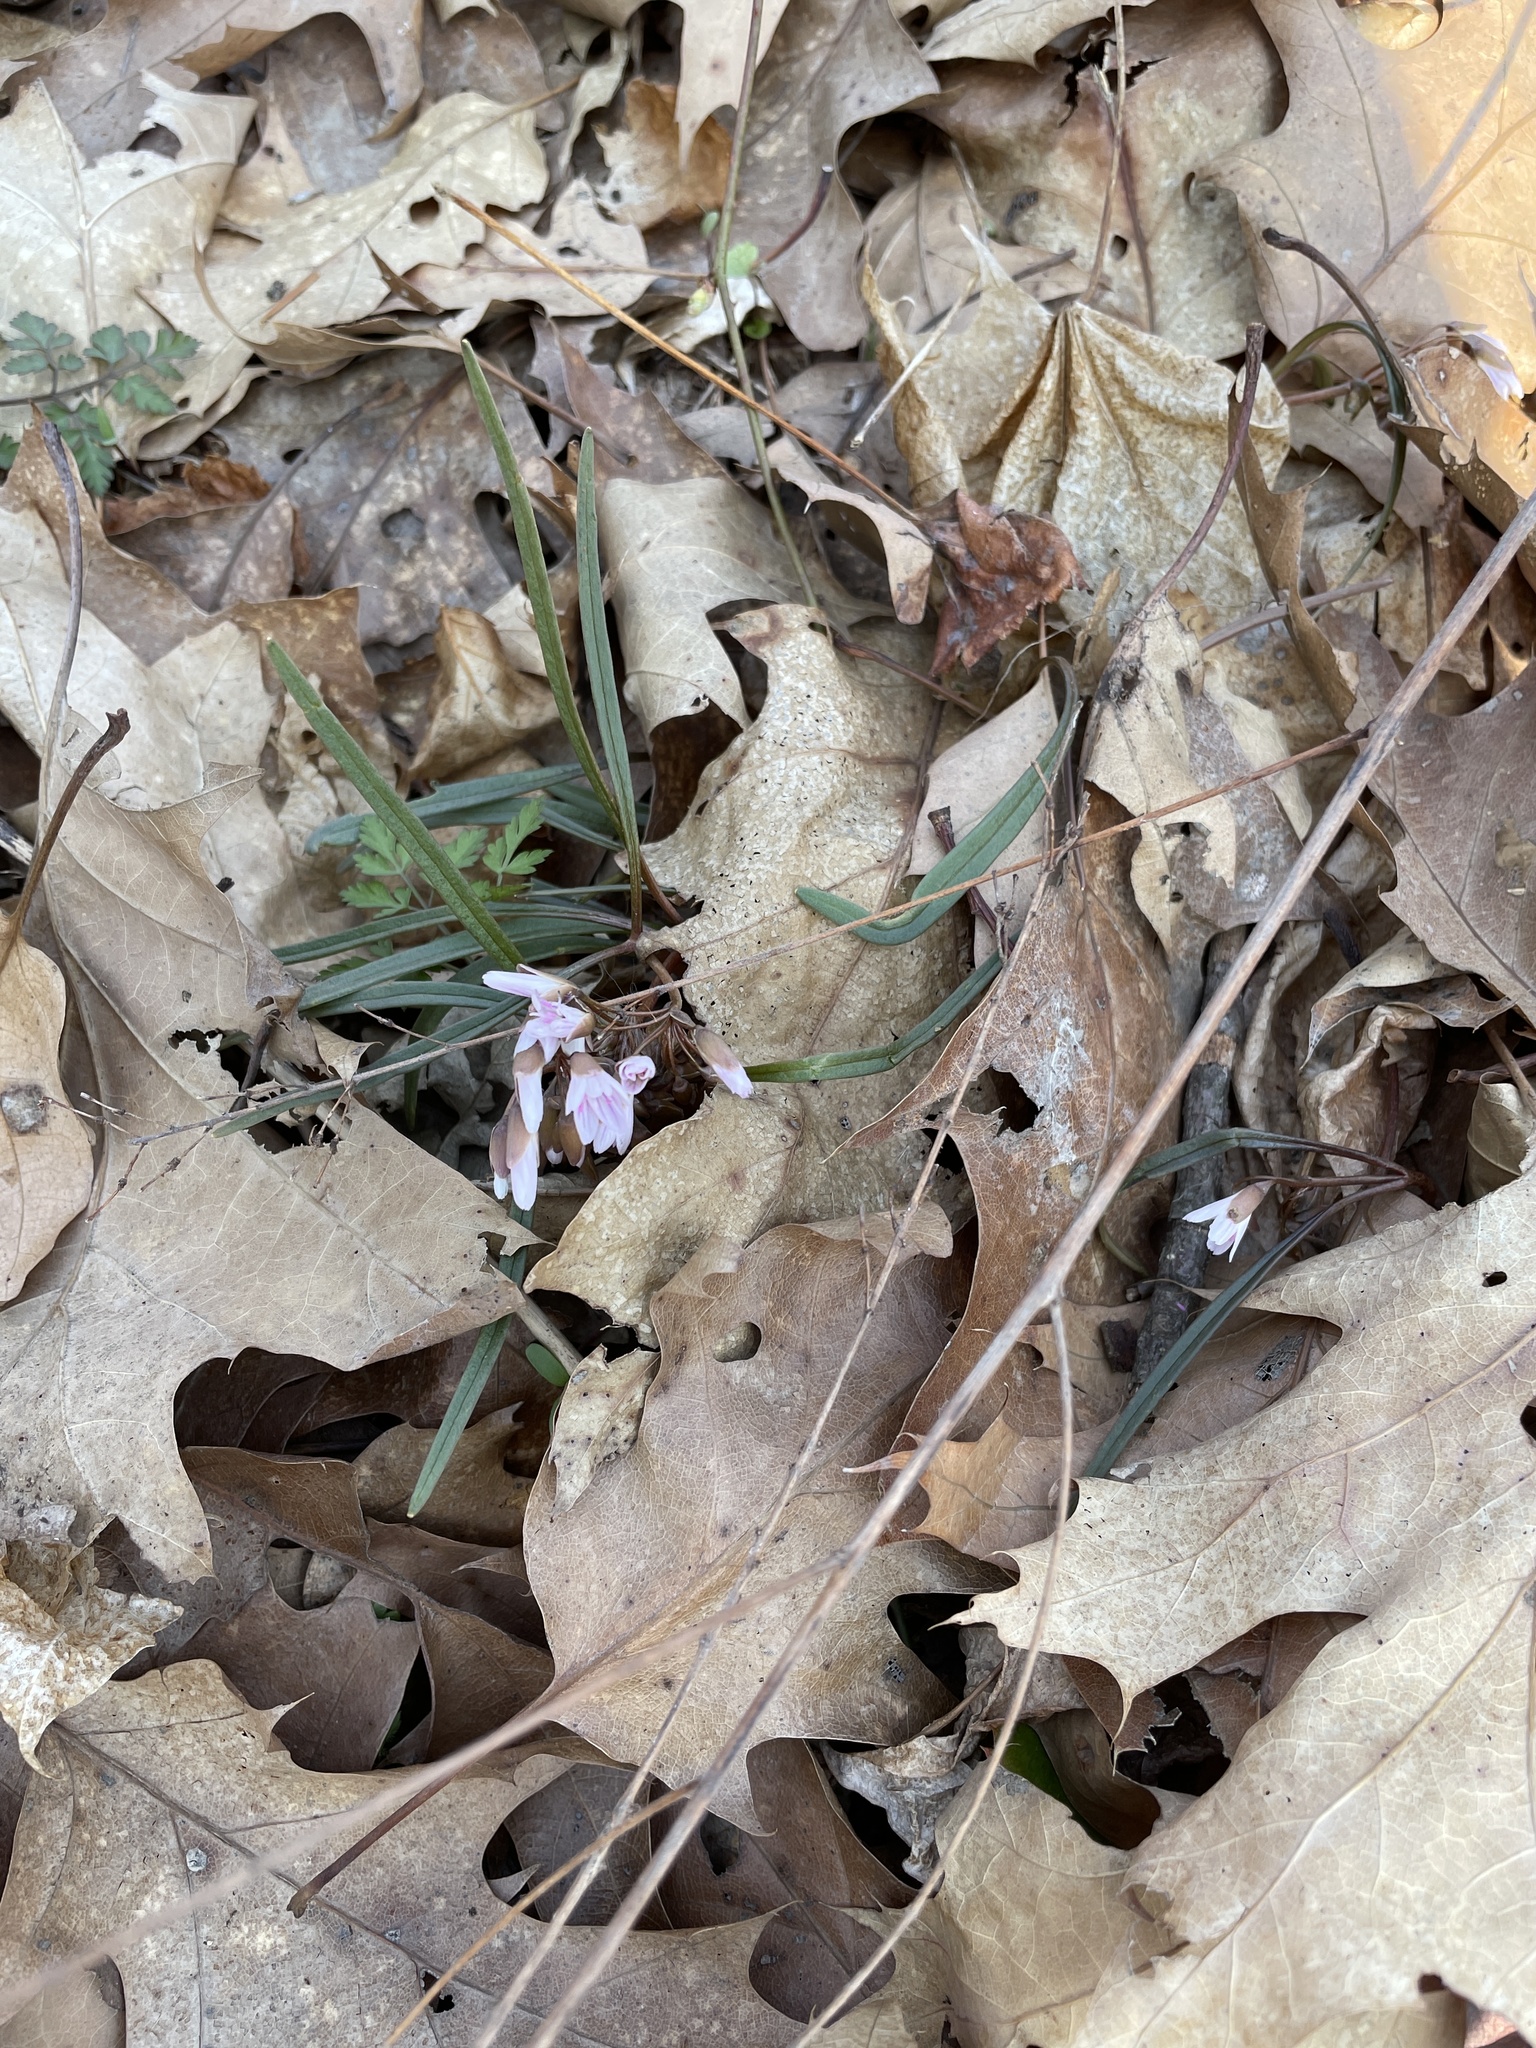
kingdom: Plantae
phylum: Tracheophyta
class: Magnoliopsida
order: Caryophyllales
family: Montiaceae
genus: Claytonia
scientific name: Claytonia virginica
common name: Virginia springbeauty
